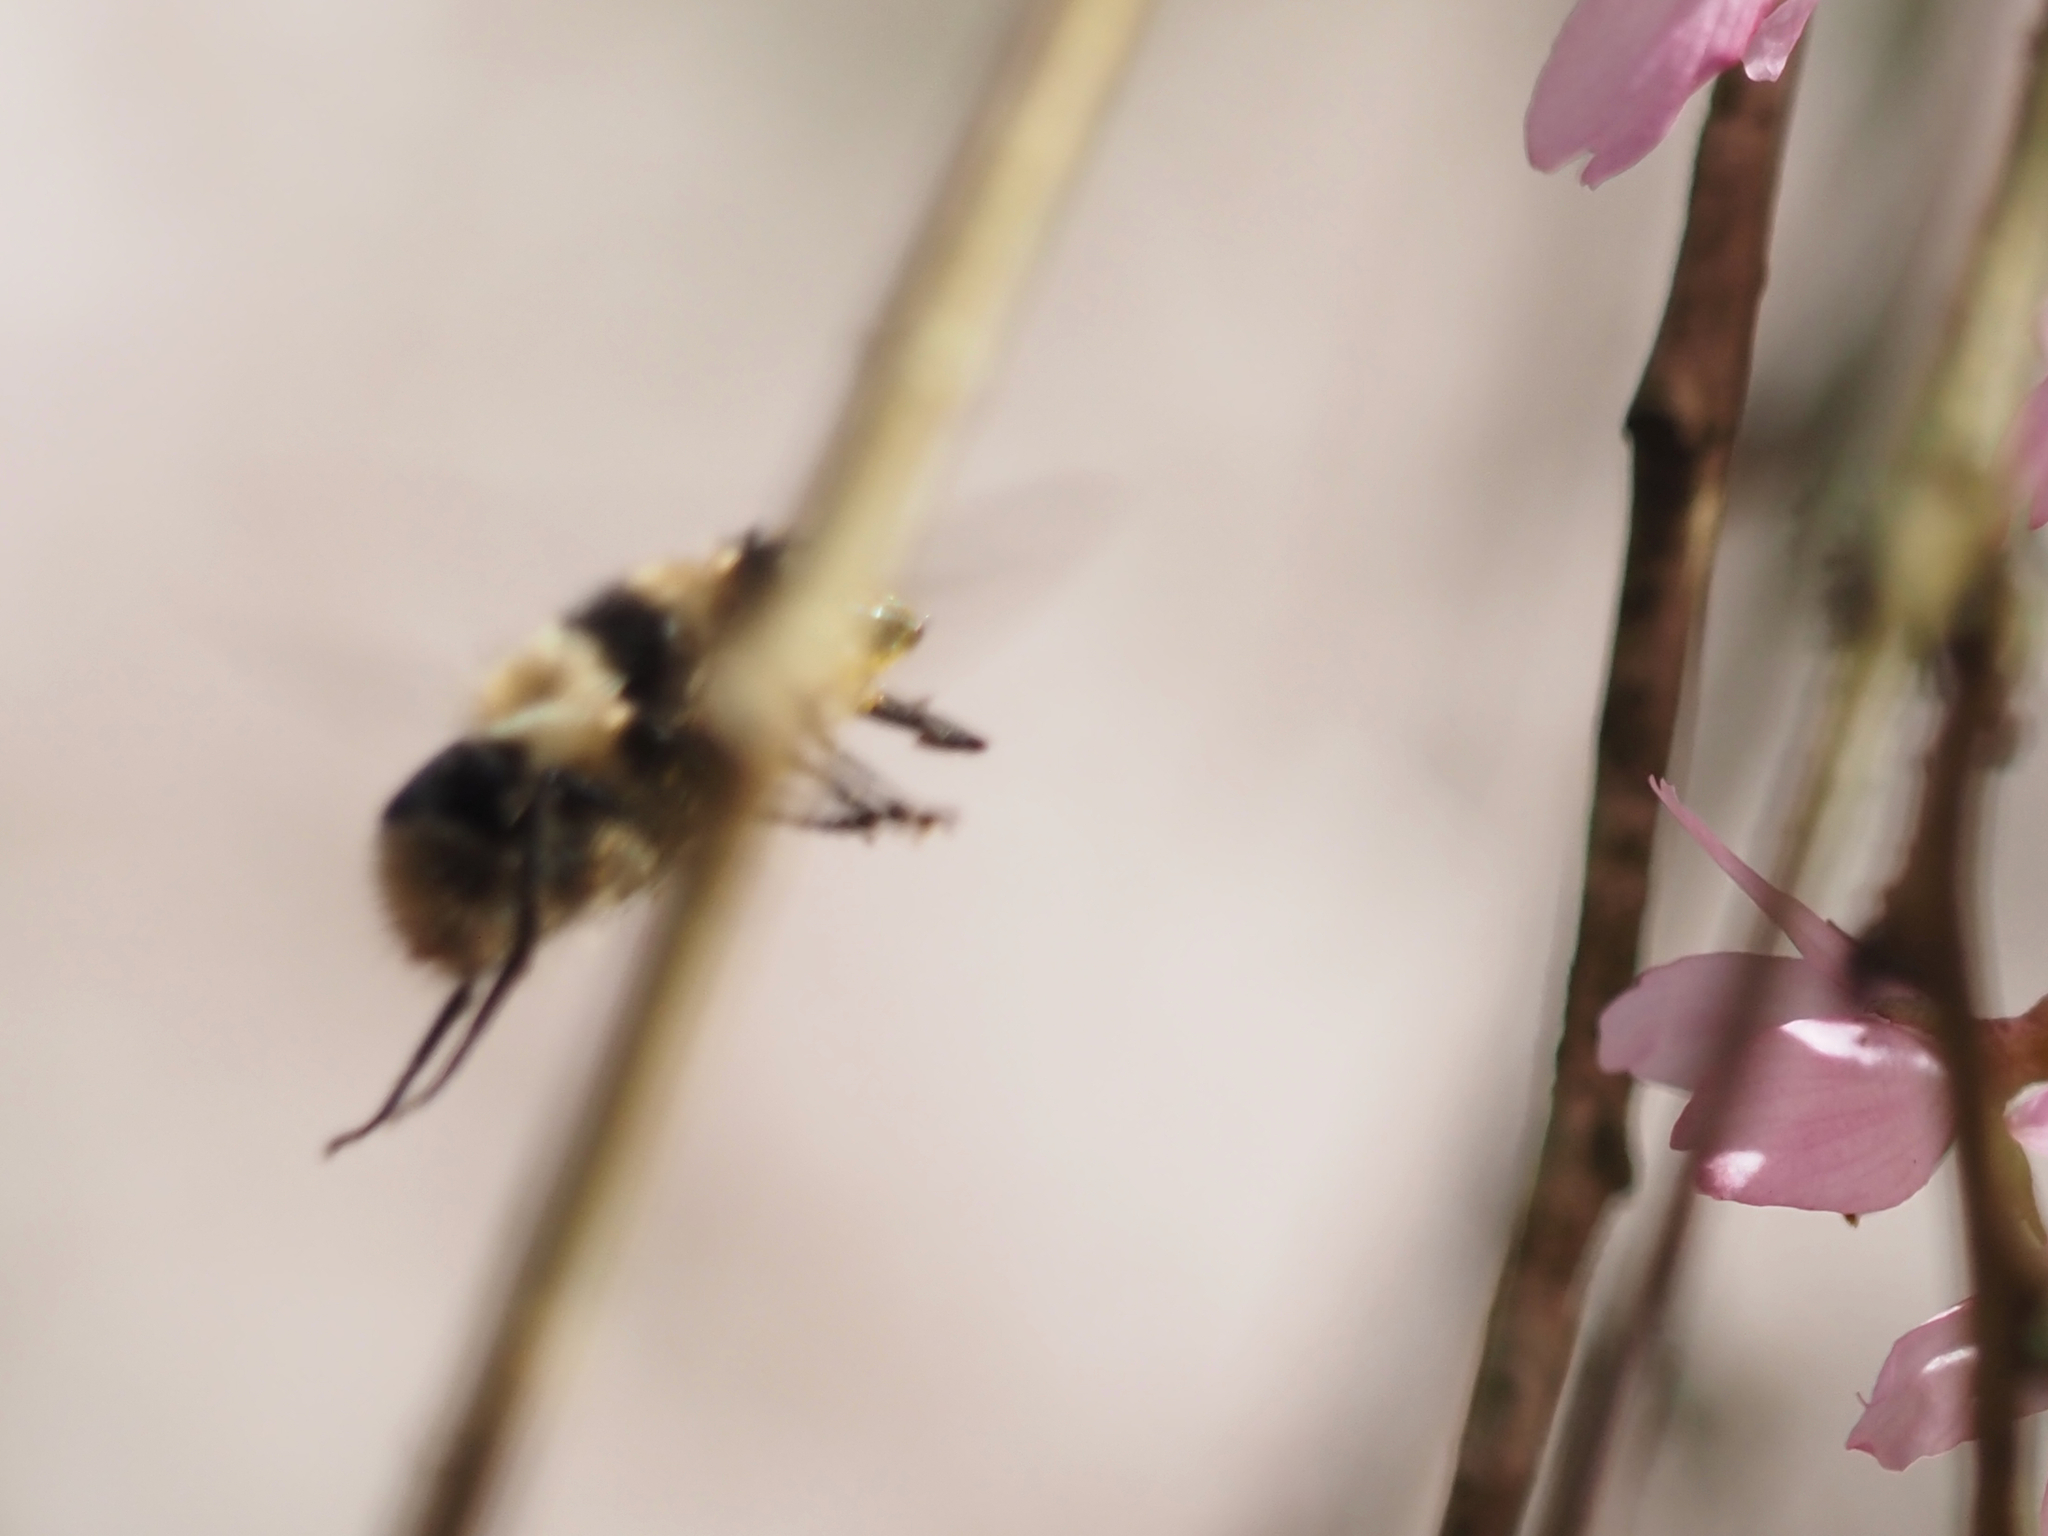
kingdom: Animalia
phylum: Arthropoda
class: Insecta
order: Diptera
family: Syrphidae
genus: Criorhina
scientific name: Criorhina nigripes
